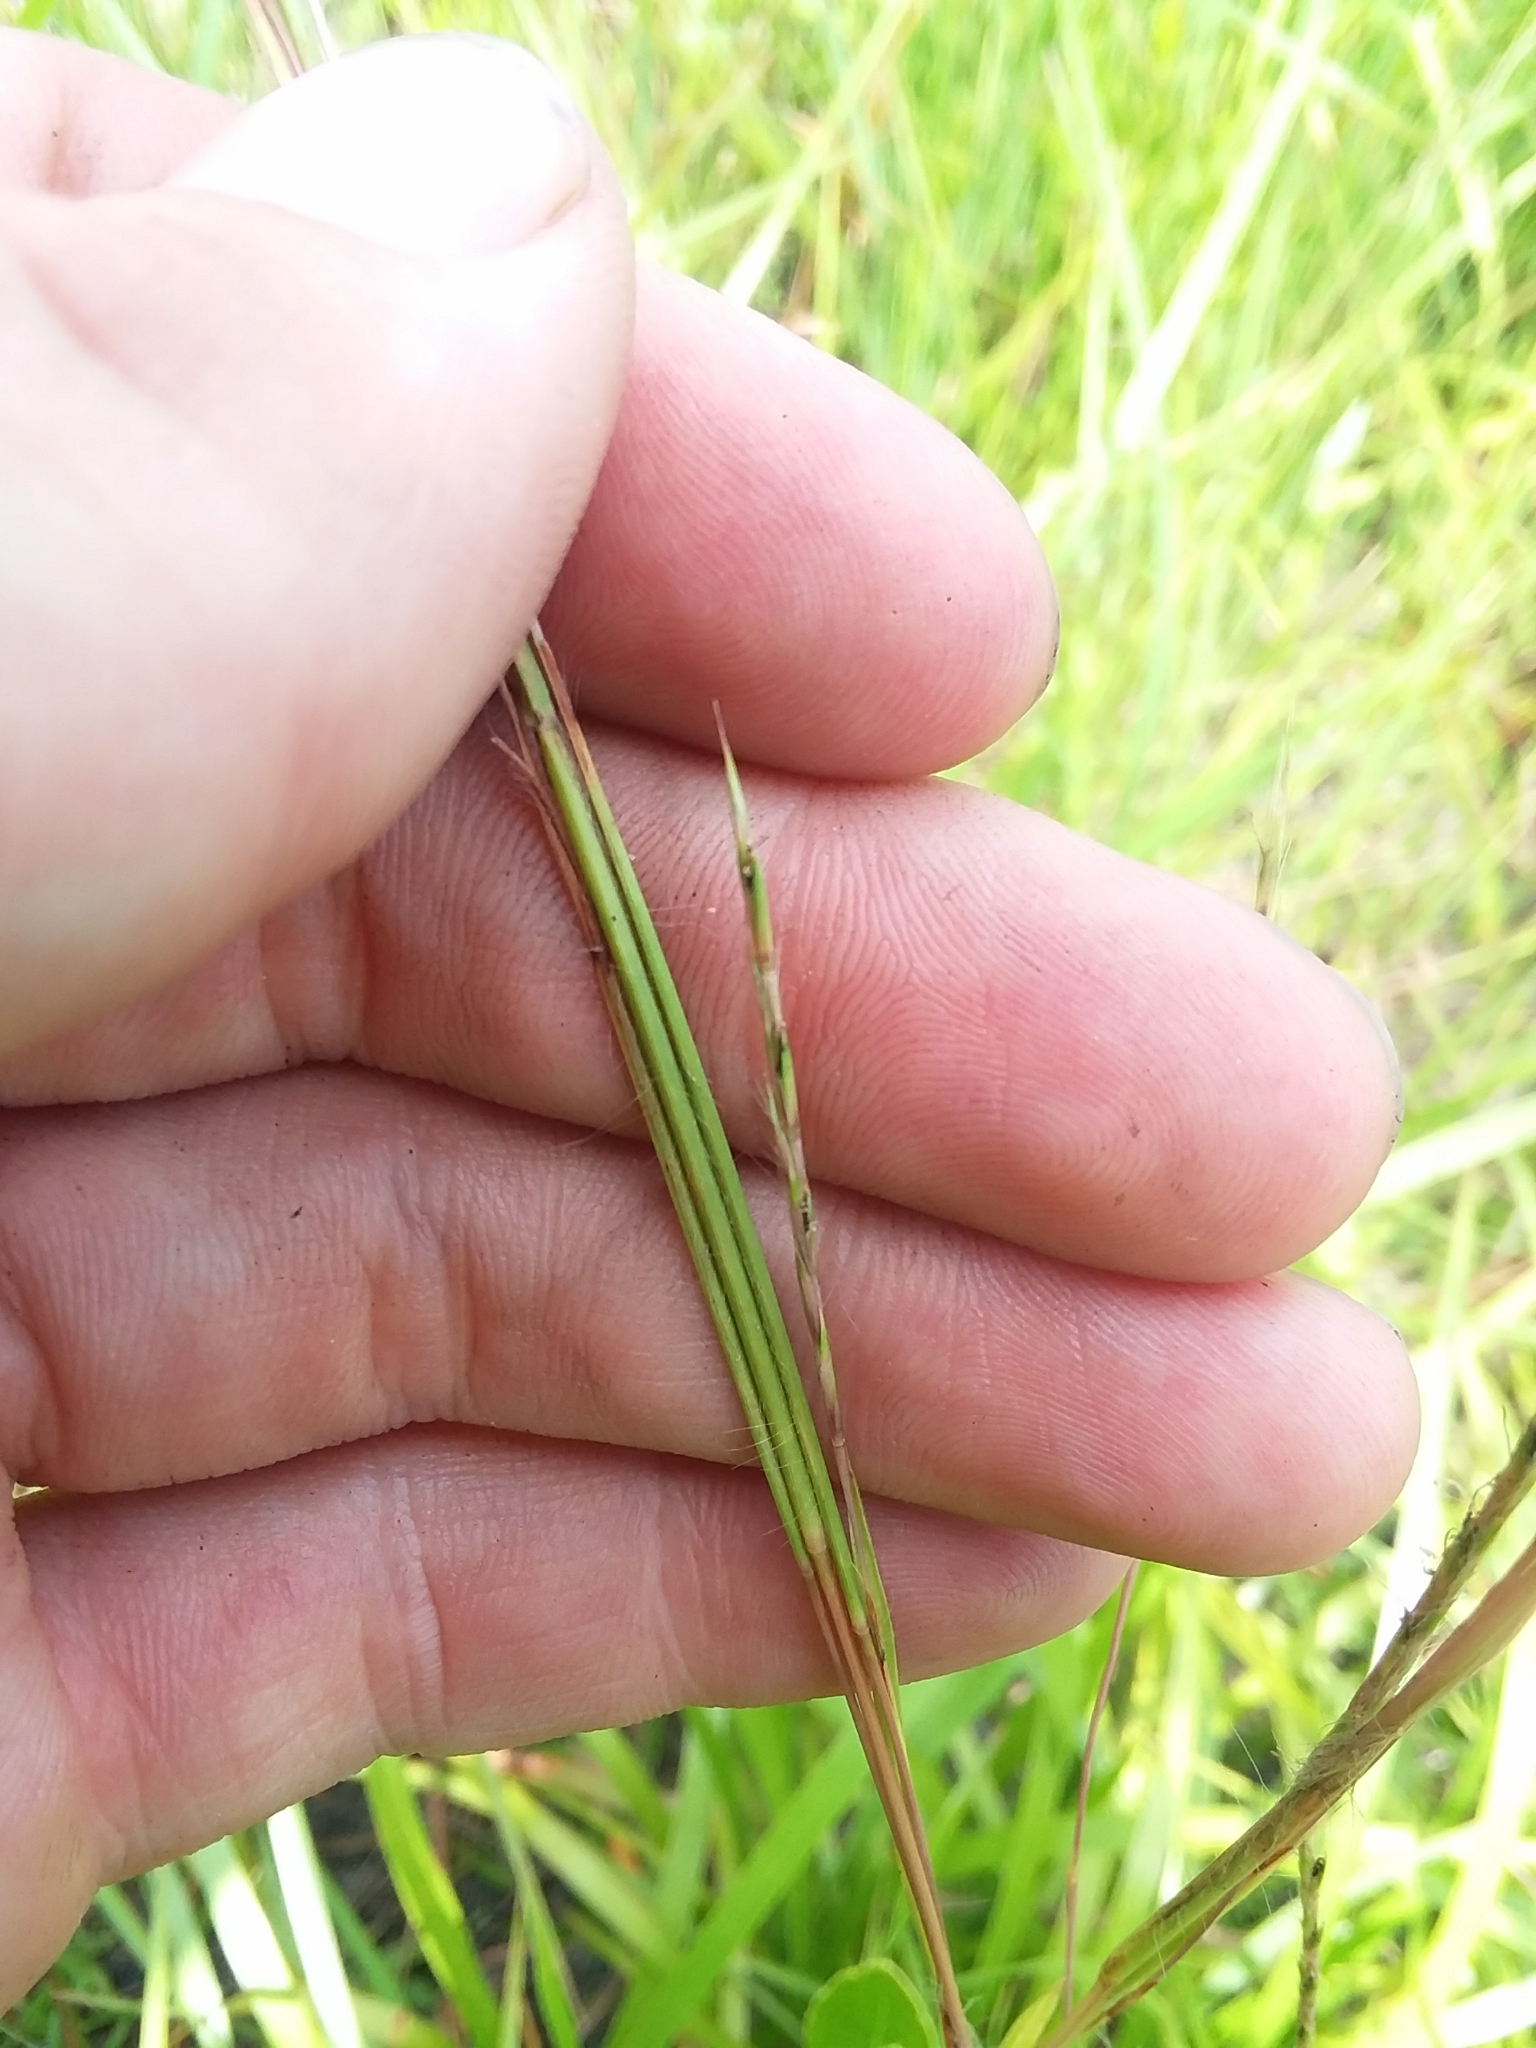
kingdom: Plantae
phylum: Tracheophyta
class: Liliopsida
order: Poales
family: Poaceae
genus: Andropogon
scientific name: Andropogon stolonifer
